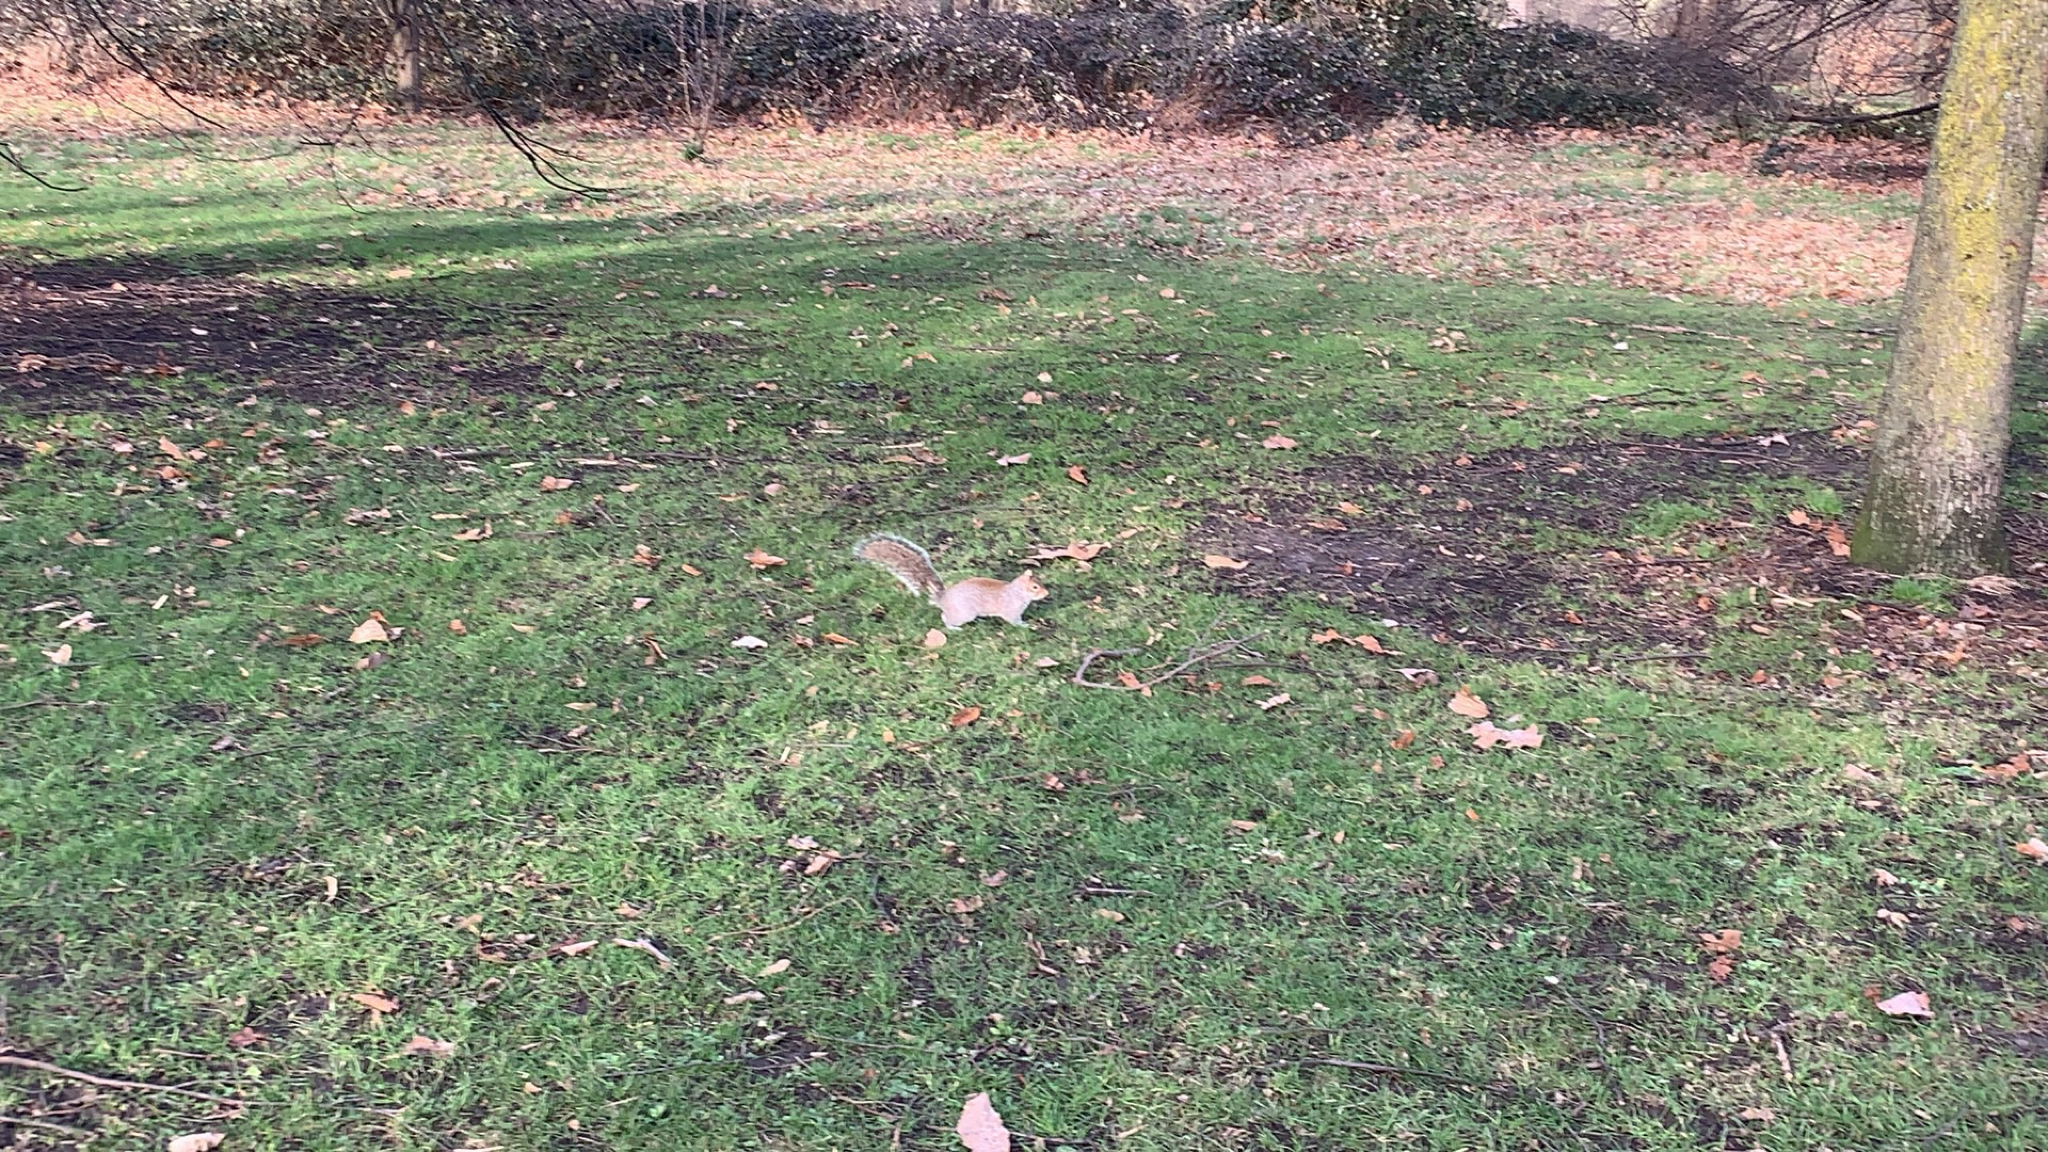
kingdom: Animalia
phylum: Chordata
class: Mammalia
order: Rodentia
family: Sciuridae
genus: Sciurus
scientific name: Sciurus carolinensis
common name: Eastern gray squirrel
